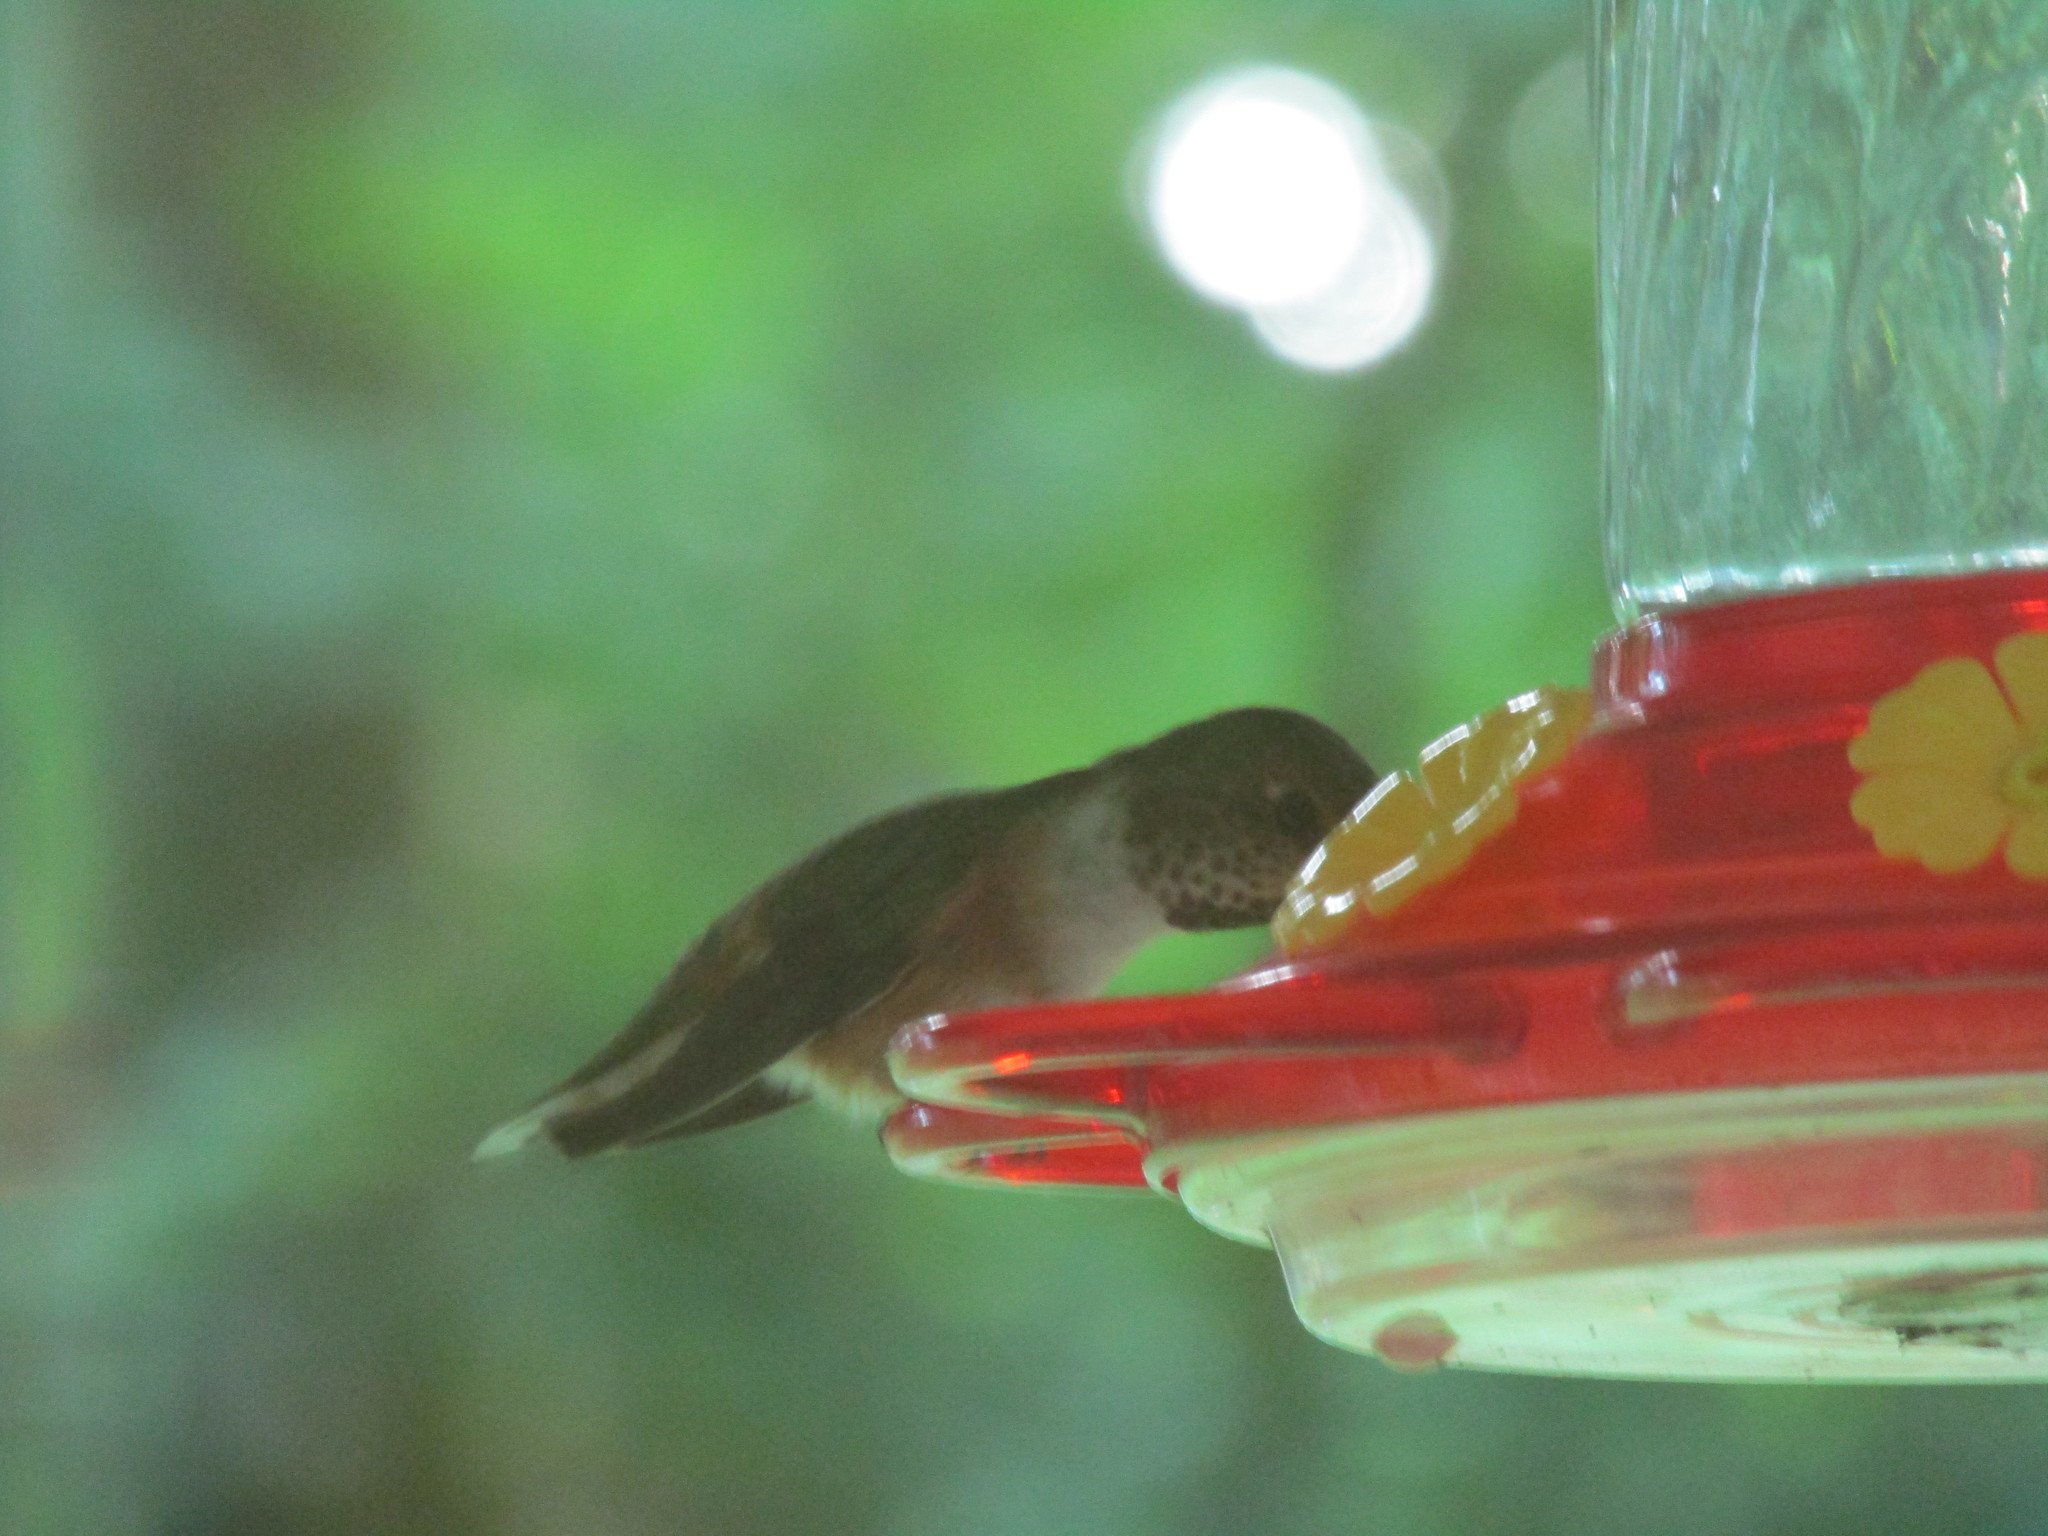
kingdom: Animalia
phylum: Chordata
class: Aves
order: Apodiformes
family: Trochilidae
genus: Selasphorus
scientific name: Selasphorus rufus
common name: Rufous hummingbird
